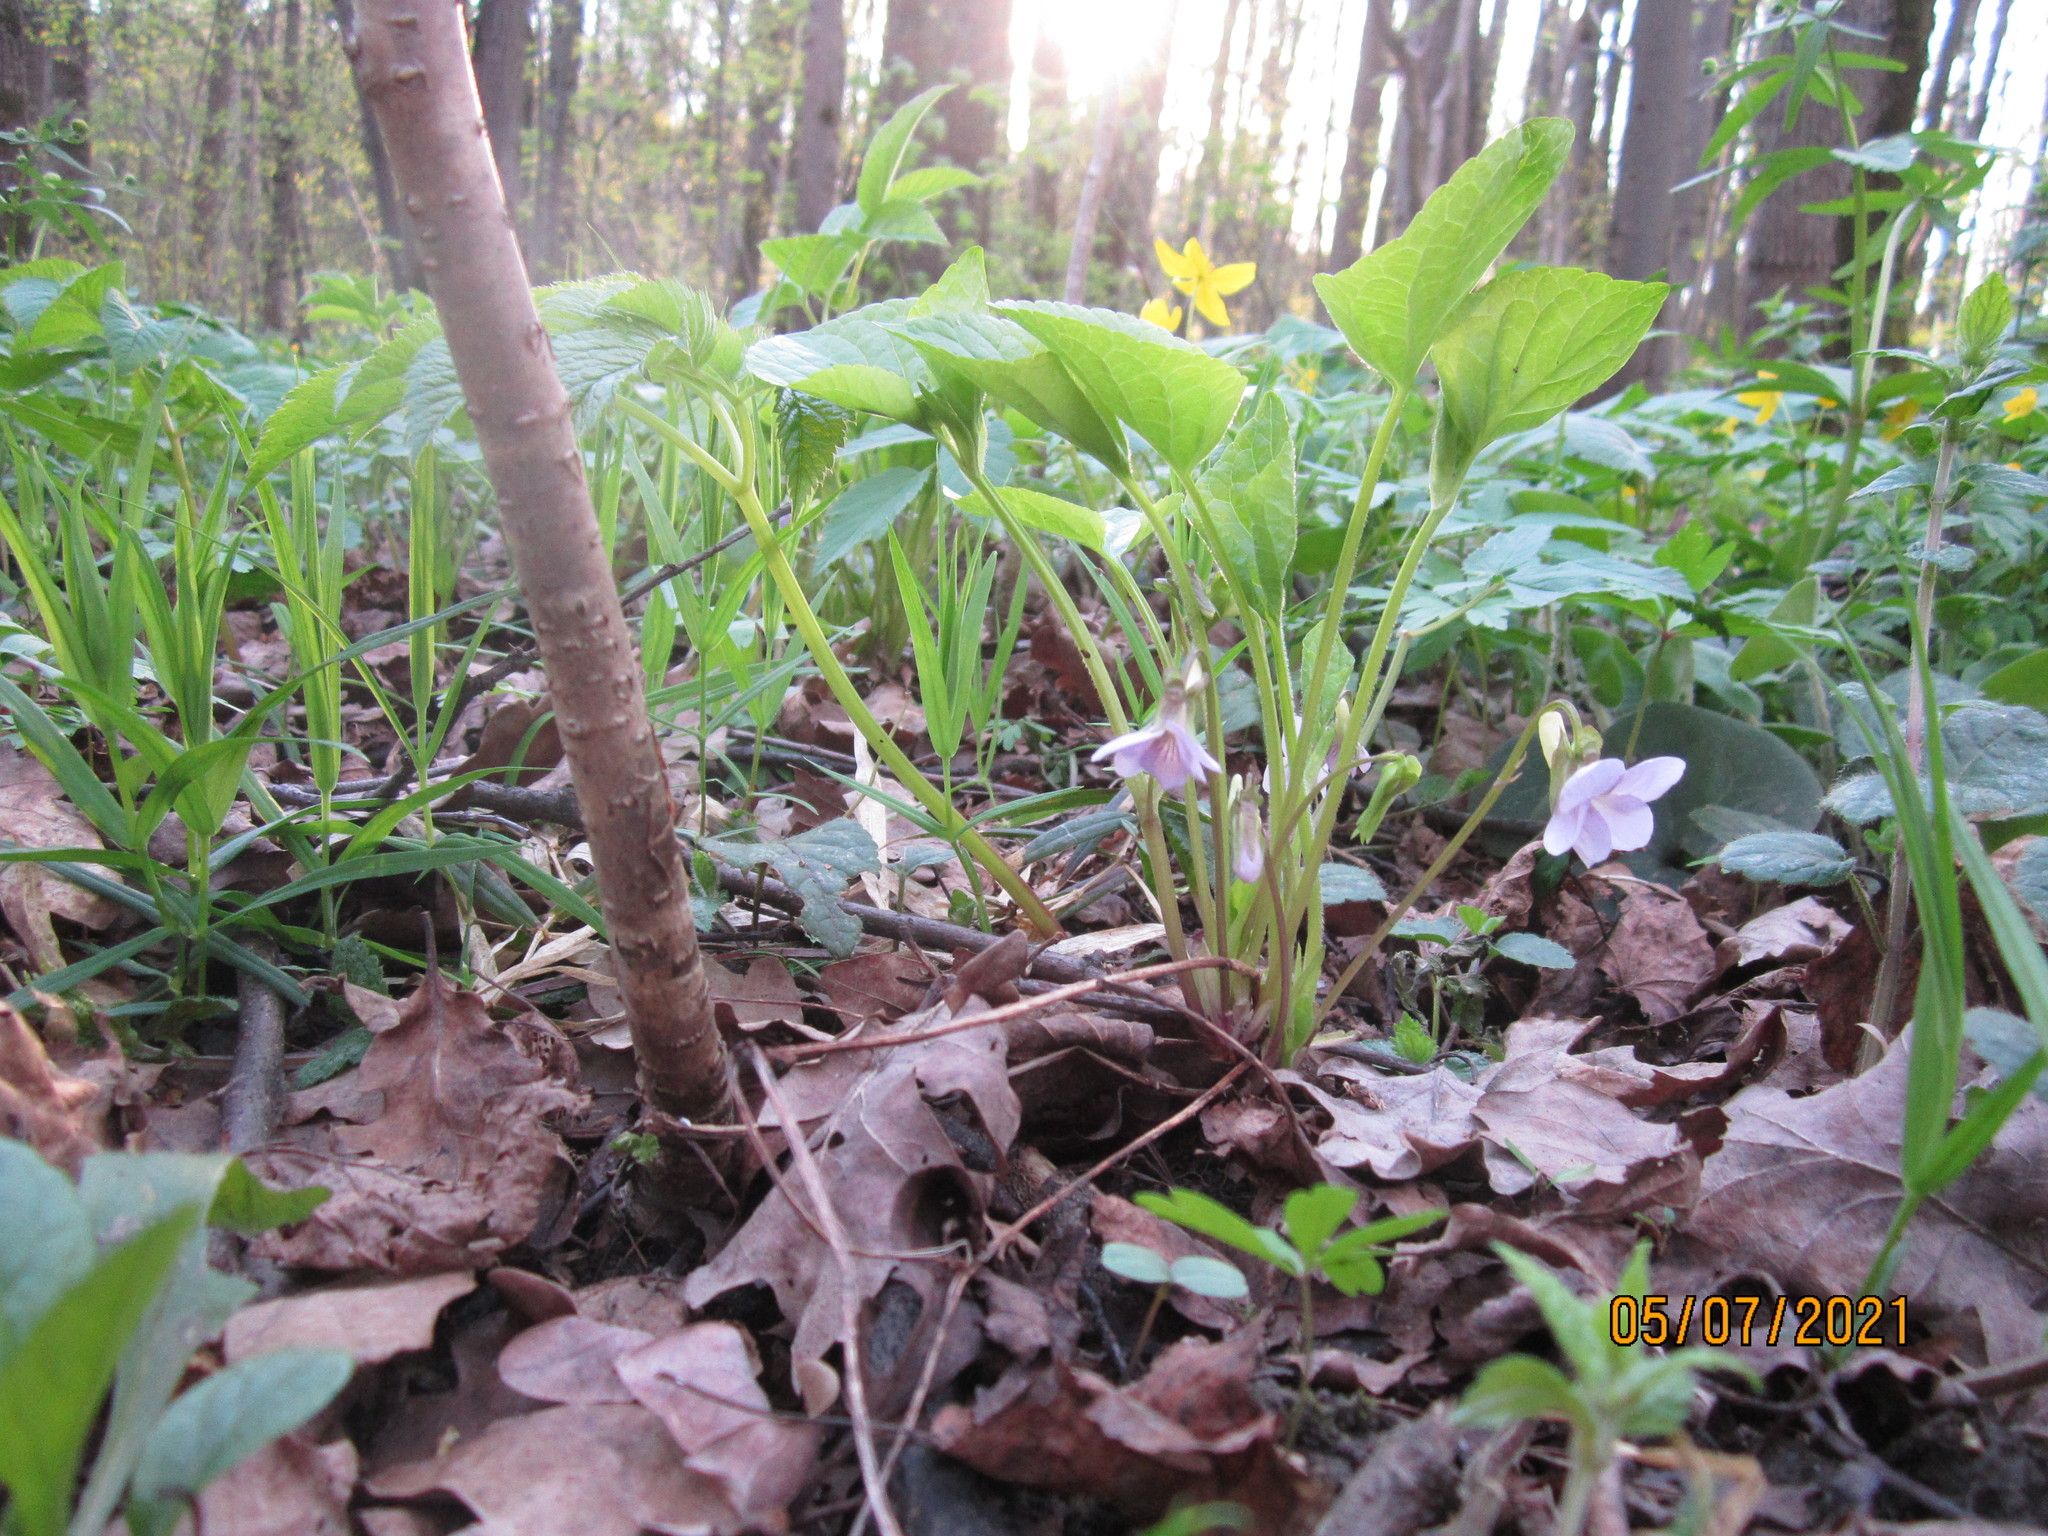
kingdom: Plantae
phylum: Tracheophyta
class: Magnoliopsida
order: Malpighiales
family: Violaceae
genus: Viola
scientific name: Viola mirabilis
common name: Wonder violet
